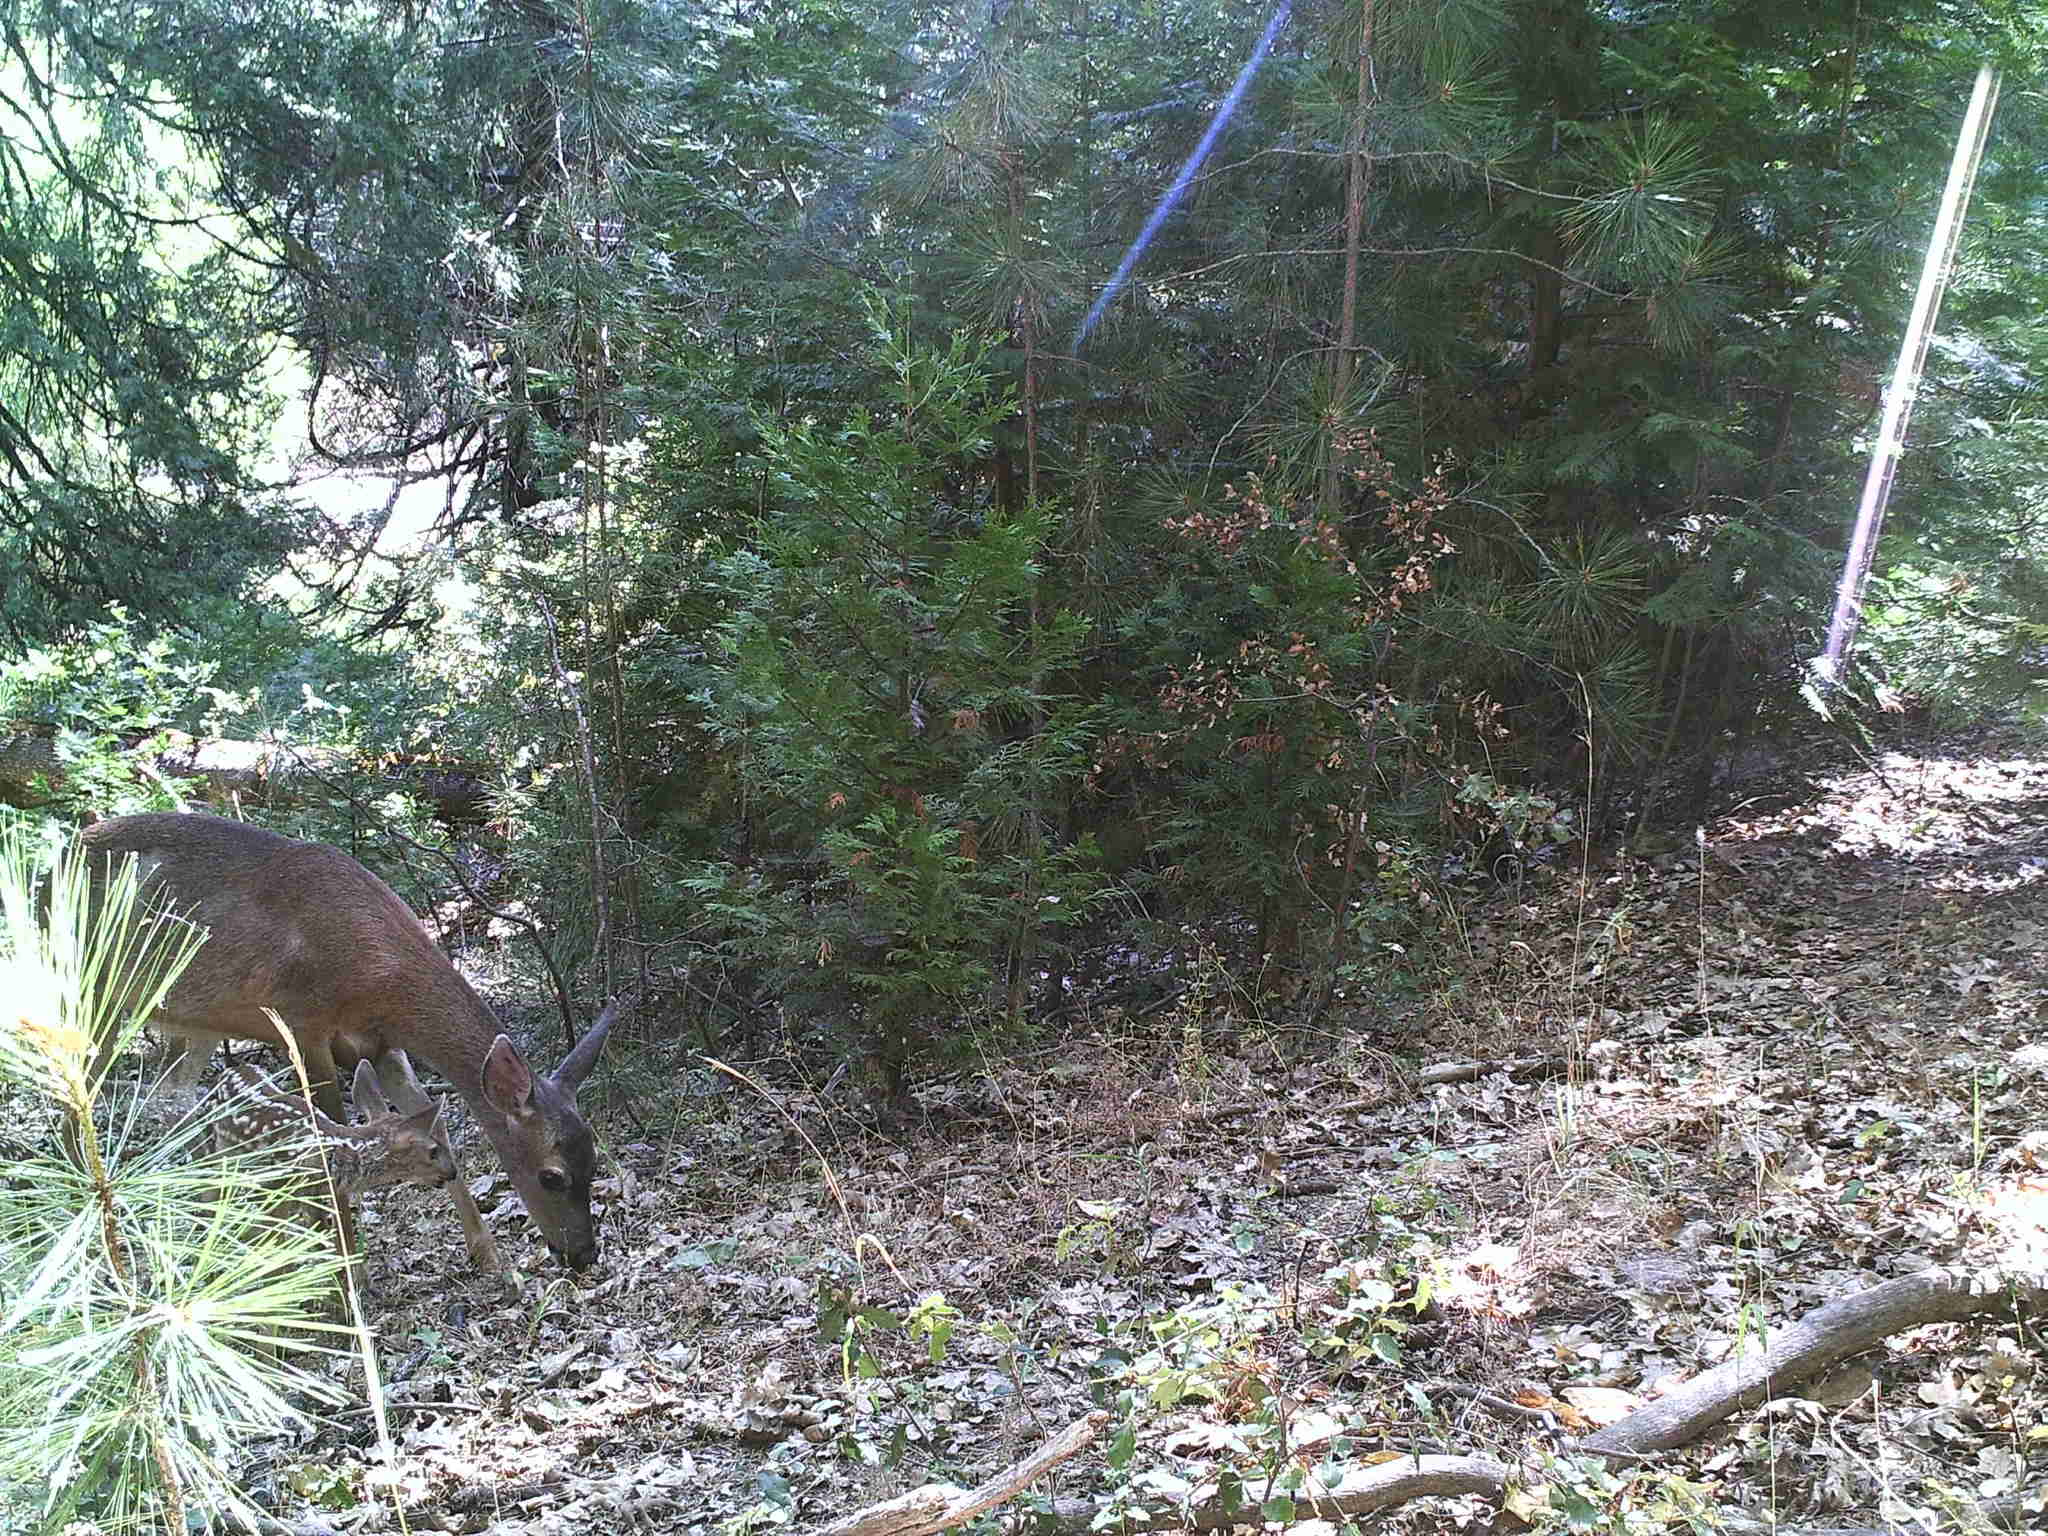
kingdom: Animalia
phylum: Chordata
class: Mammalia
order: Artiodactyla
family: Cervidae
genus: Odocoileus
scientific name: Odocoileus hemionus
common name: Mule deer
